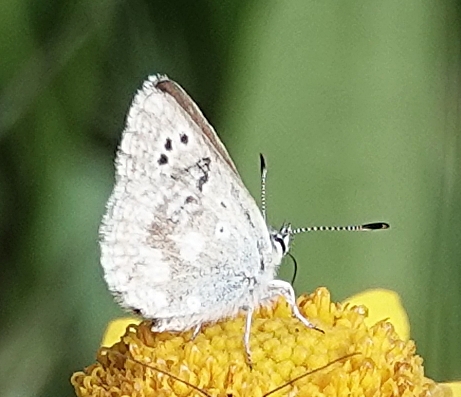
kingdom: Animalia
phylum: Arthropoda
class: Insecta
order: Lepidoptera
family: Lycaenidae
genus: Agriades
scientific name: Agriades glandon
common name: Glandon blue
